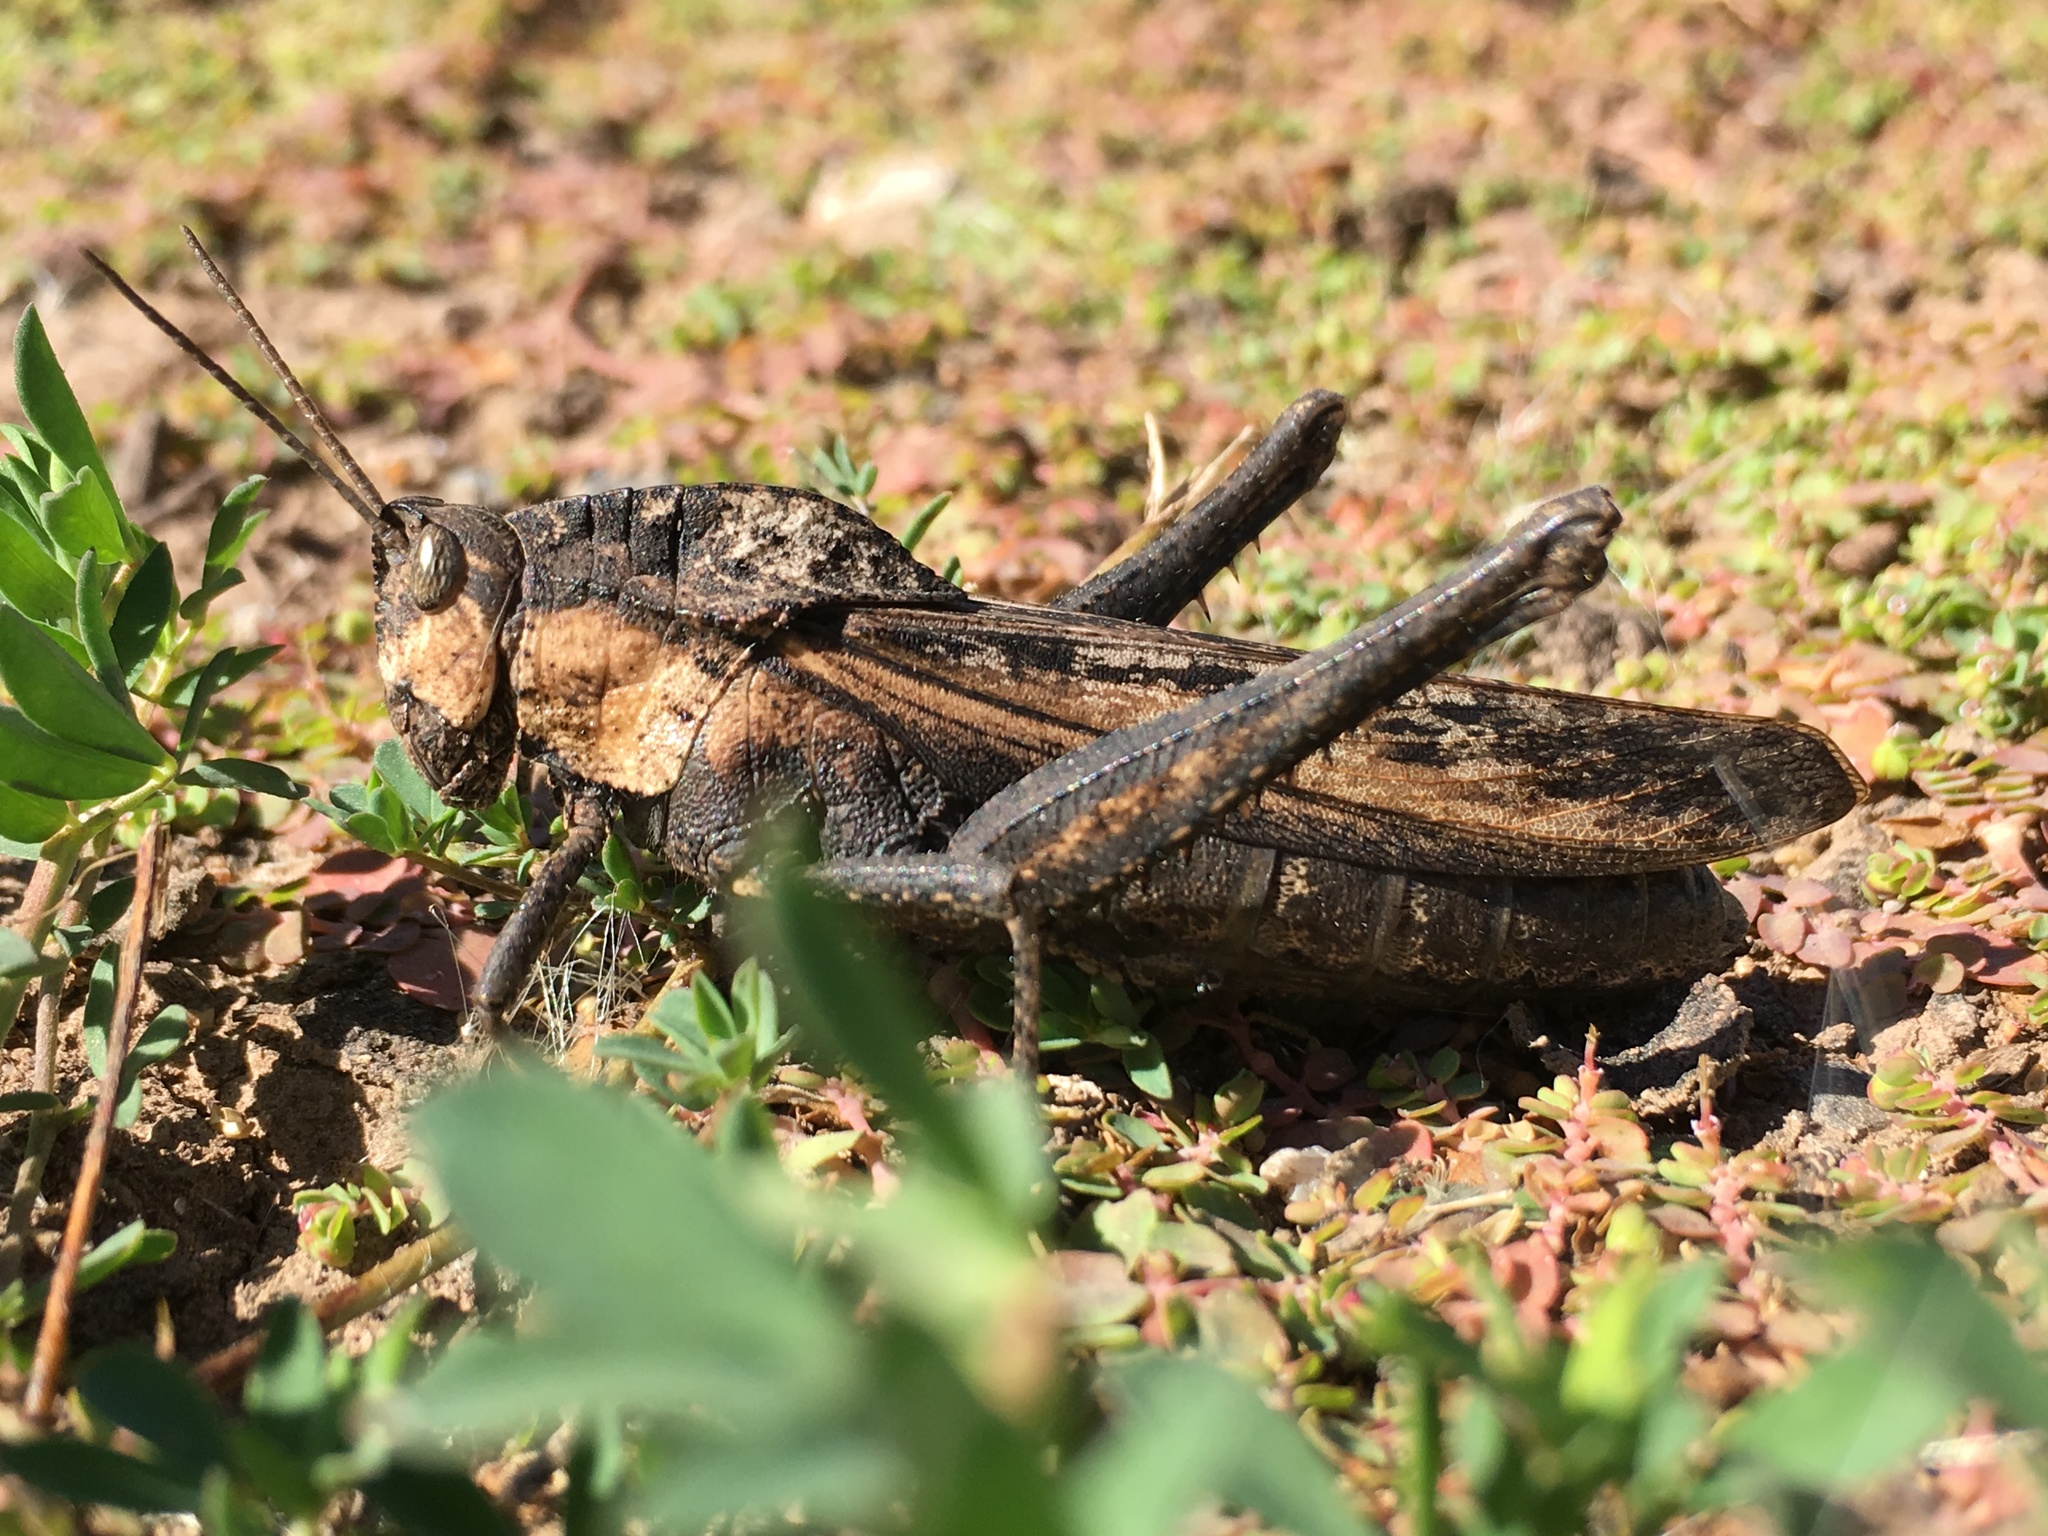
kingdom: Animalia
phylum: Arthropoda
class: Insecta
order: Orthoptera
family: Romaleidae
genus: Xyleus
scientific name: Xyleus discoideus
